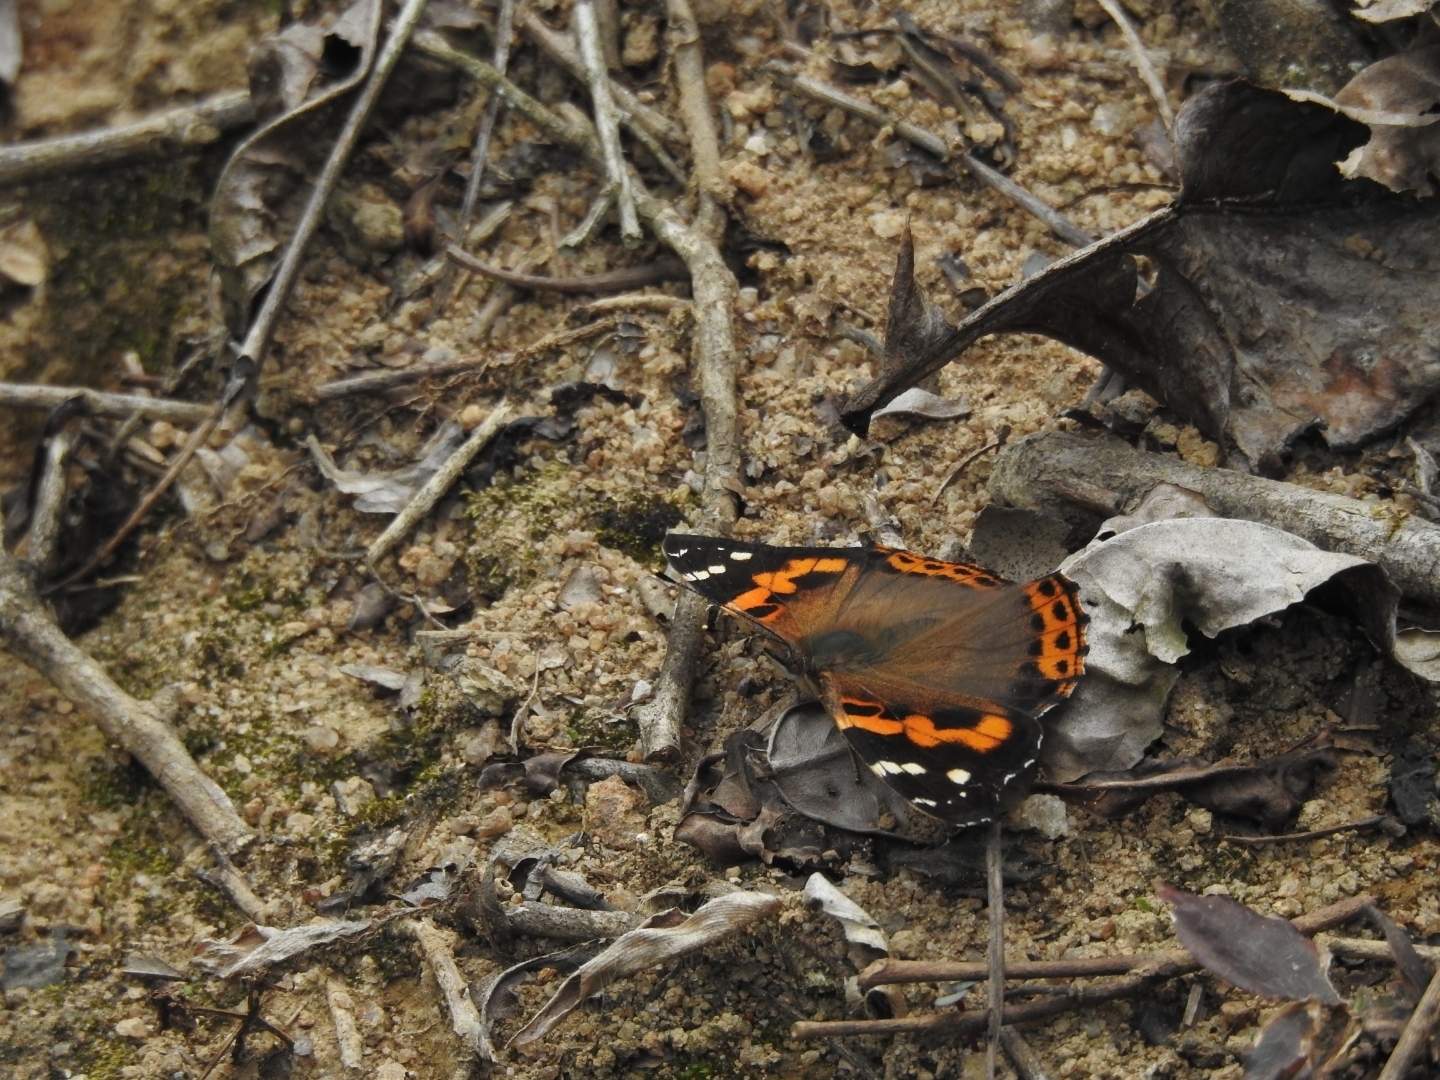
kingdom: Animalia
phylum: Arthropoda
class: Insecta
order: Lepidoptera
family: Nymphalidae
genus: Vanessa
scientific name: Vanessa indica
